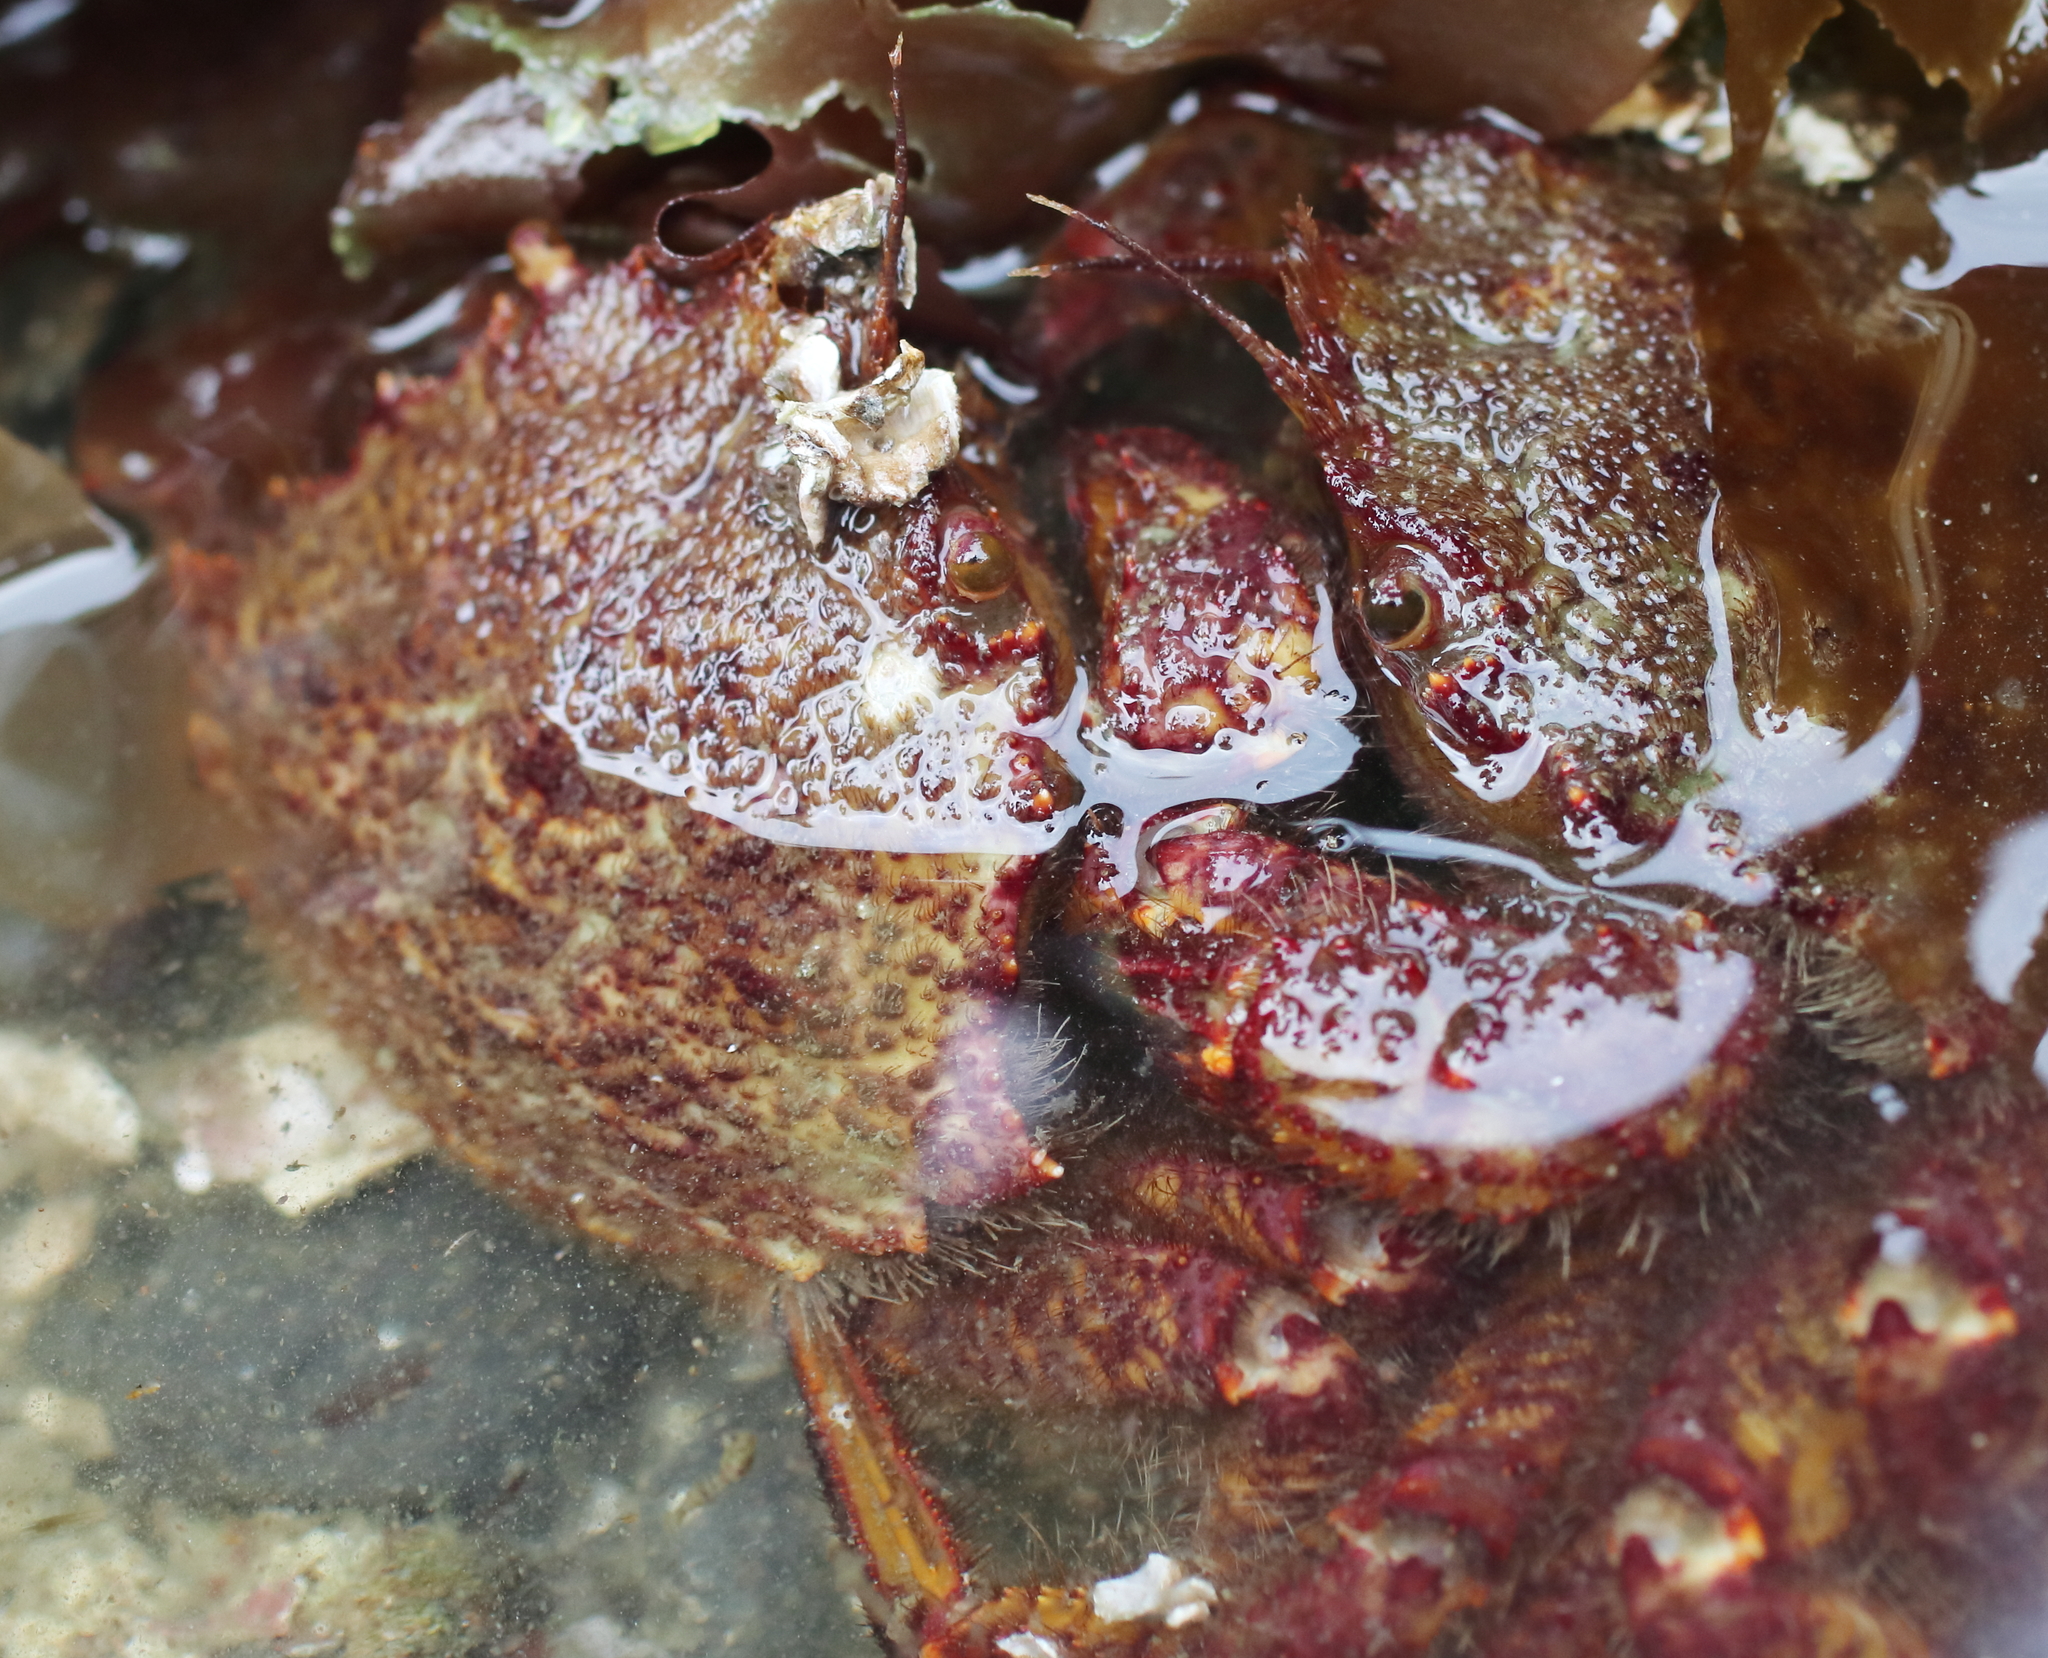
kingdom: Animalia
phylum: Arthropoda
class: Malacostraca
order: Decapoda
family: Cheiragonidae
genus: Telmessus
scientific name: Telmessus cheiragonus
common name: Helmet crab
